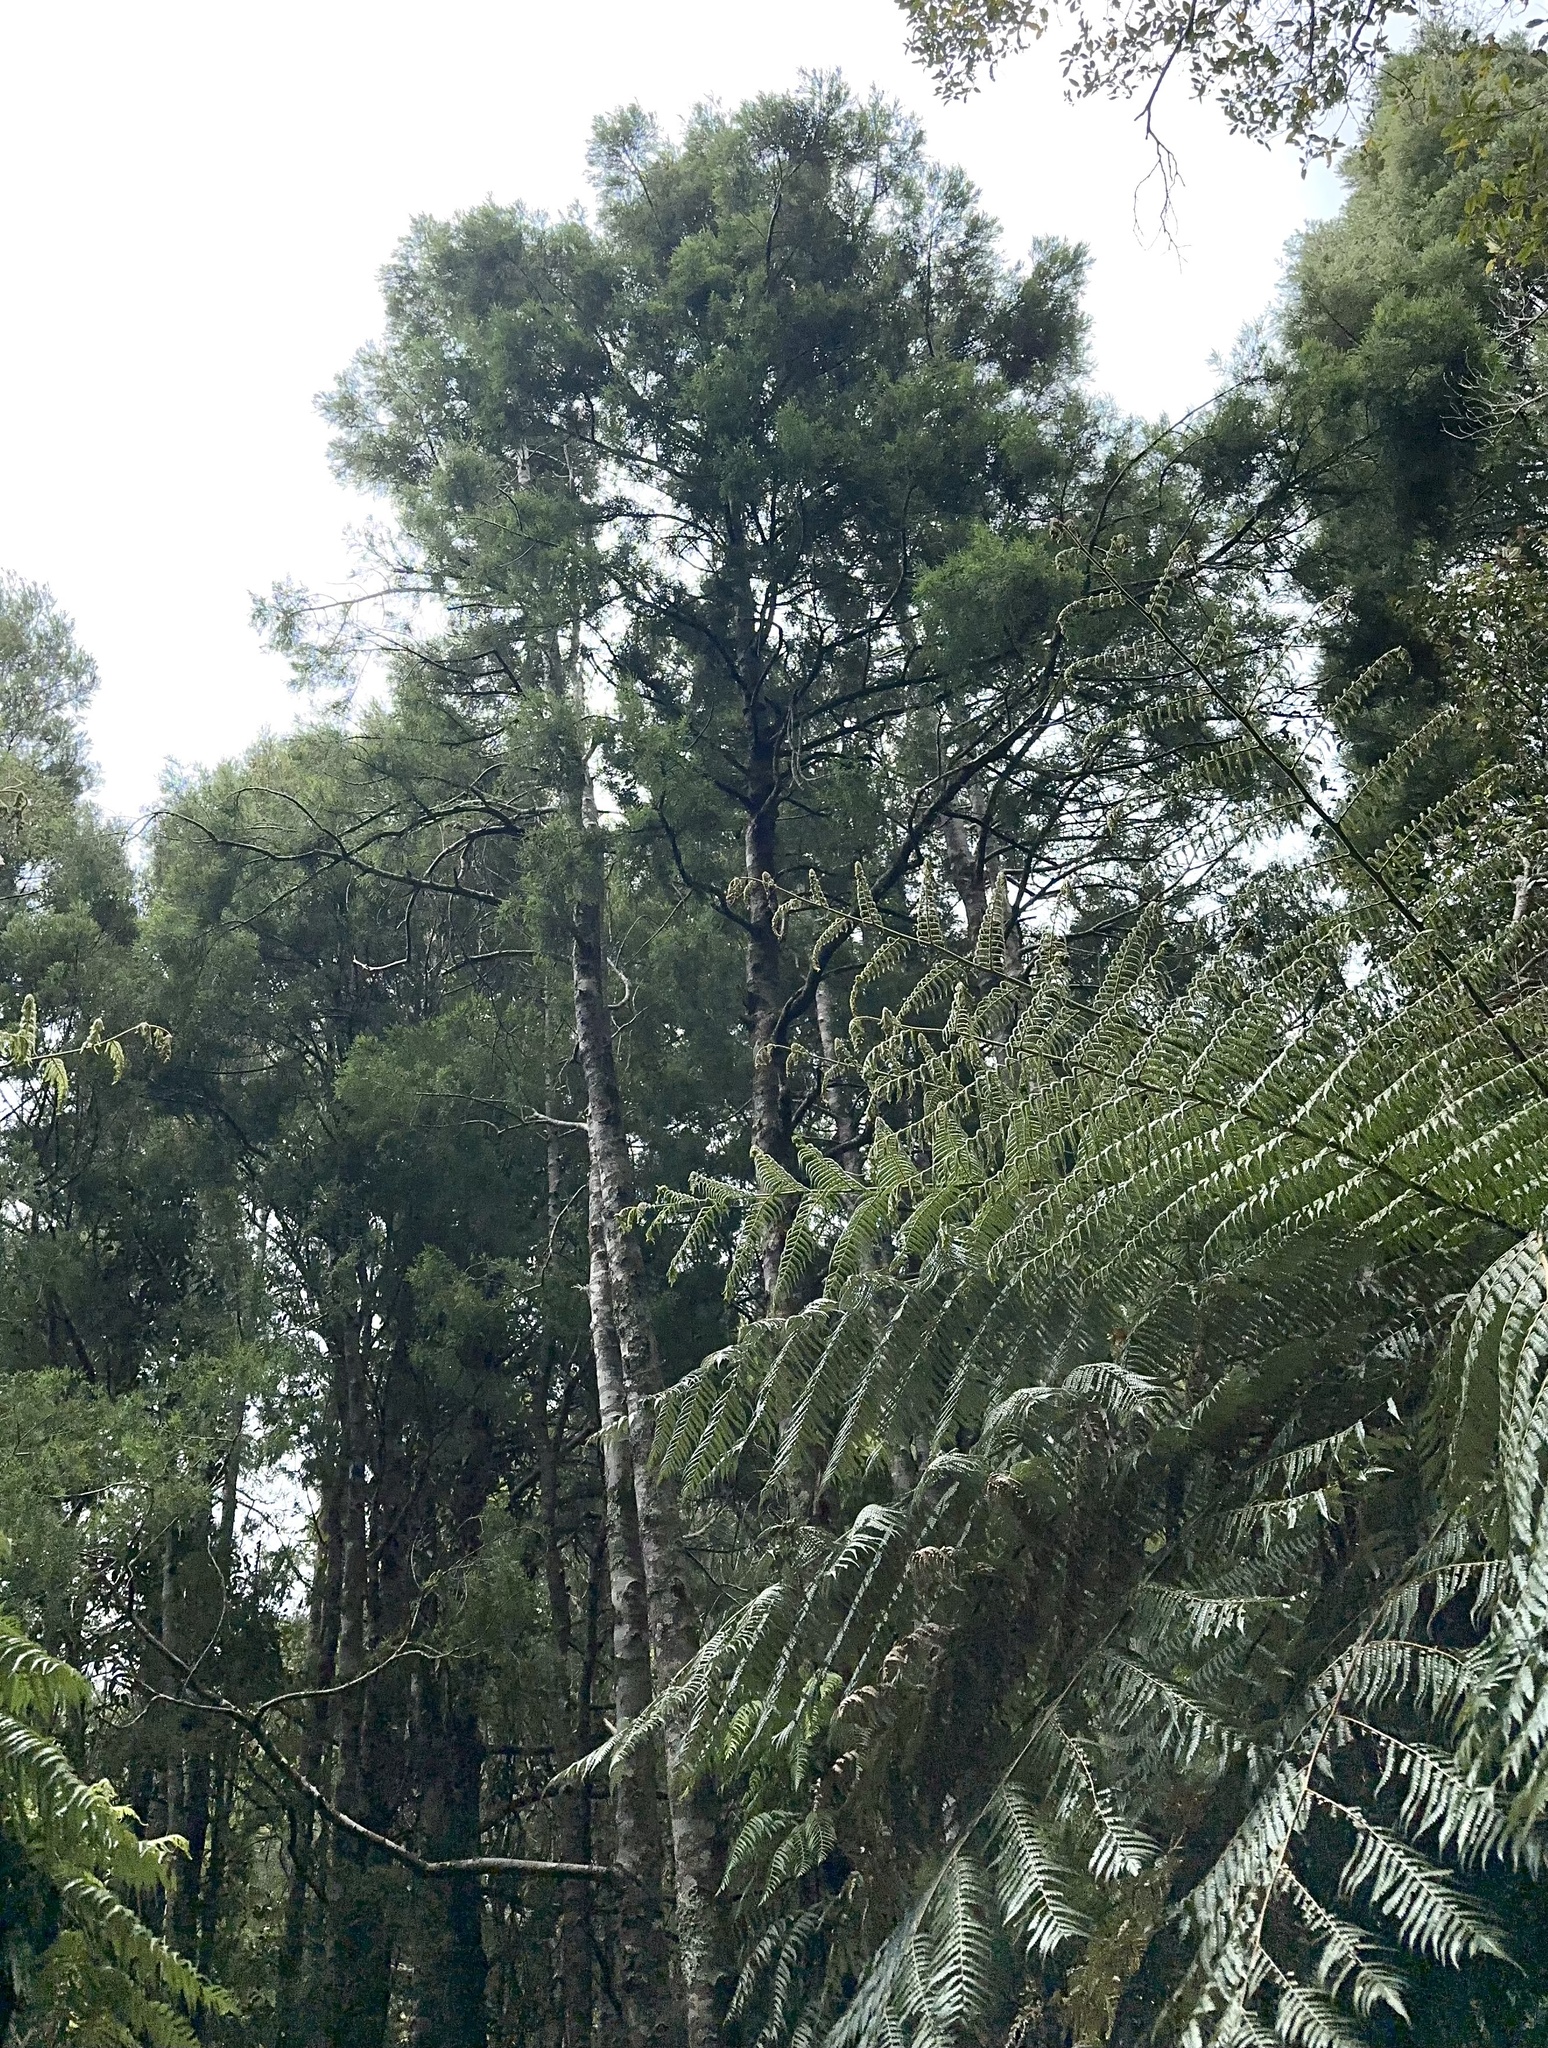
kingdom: Plantae
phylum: Tracheophyta
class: Pinopsida
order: Pinales
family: Podocarpaceae
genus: Dacrycarpus
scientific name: Dacrycarpus dacrydioides
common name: White pine
